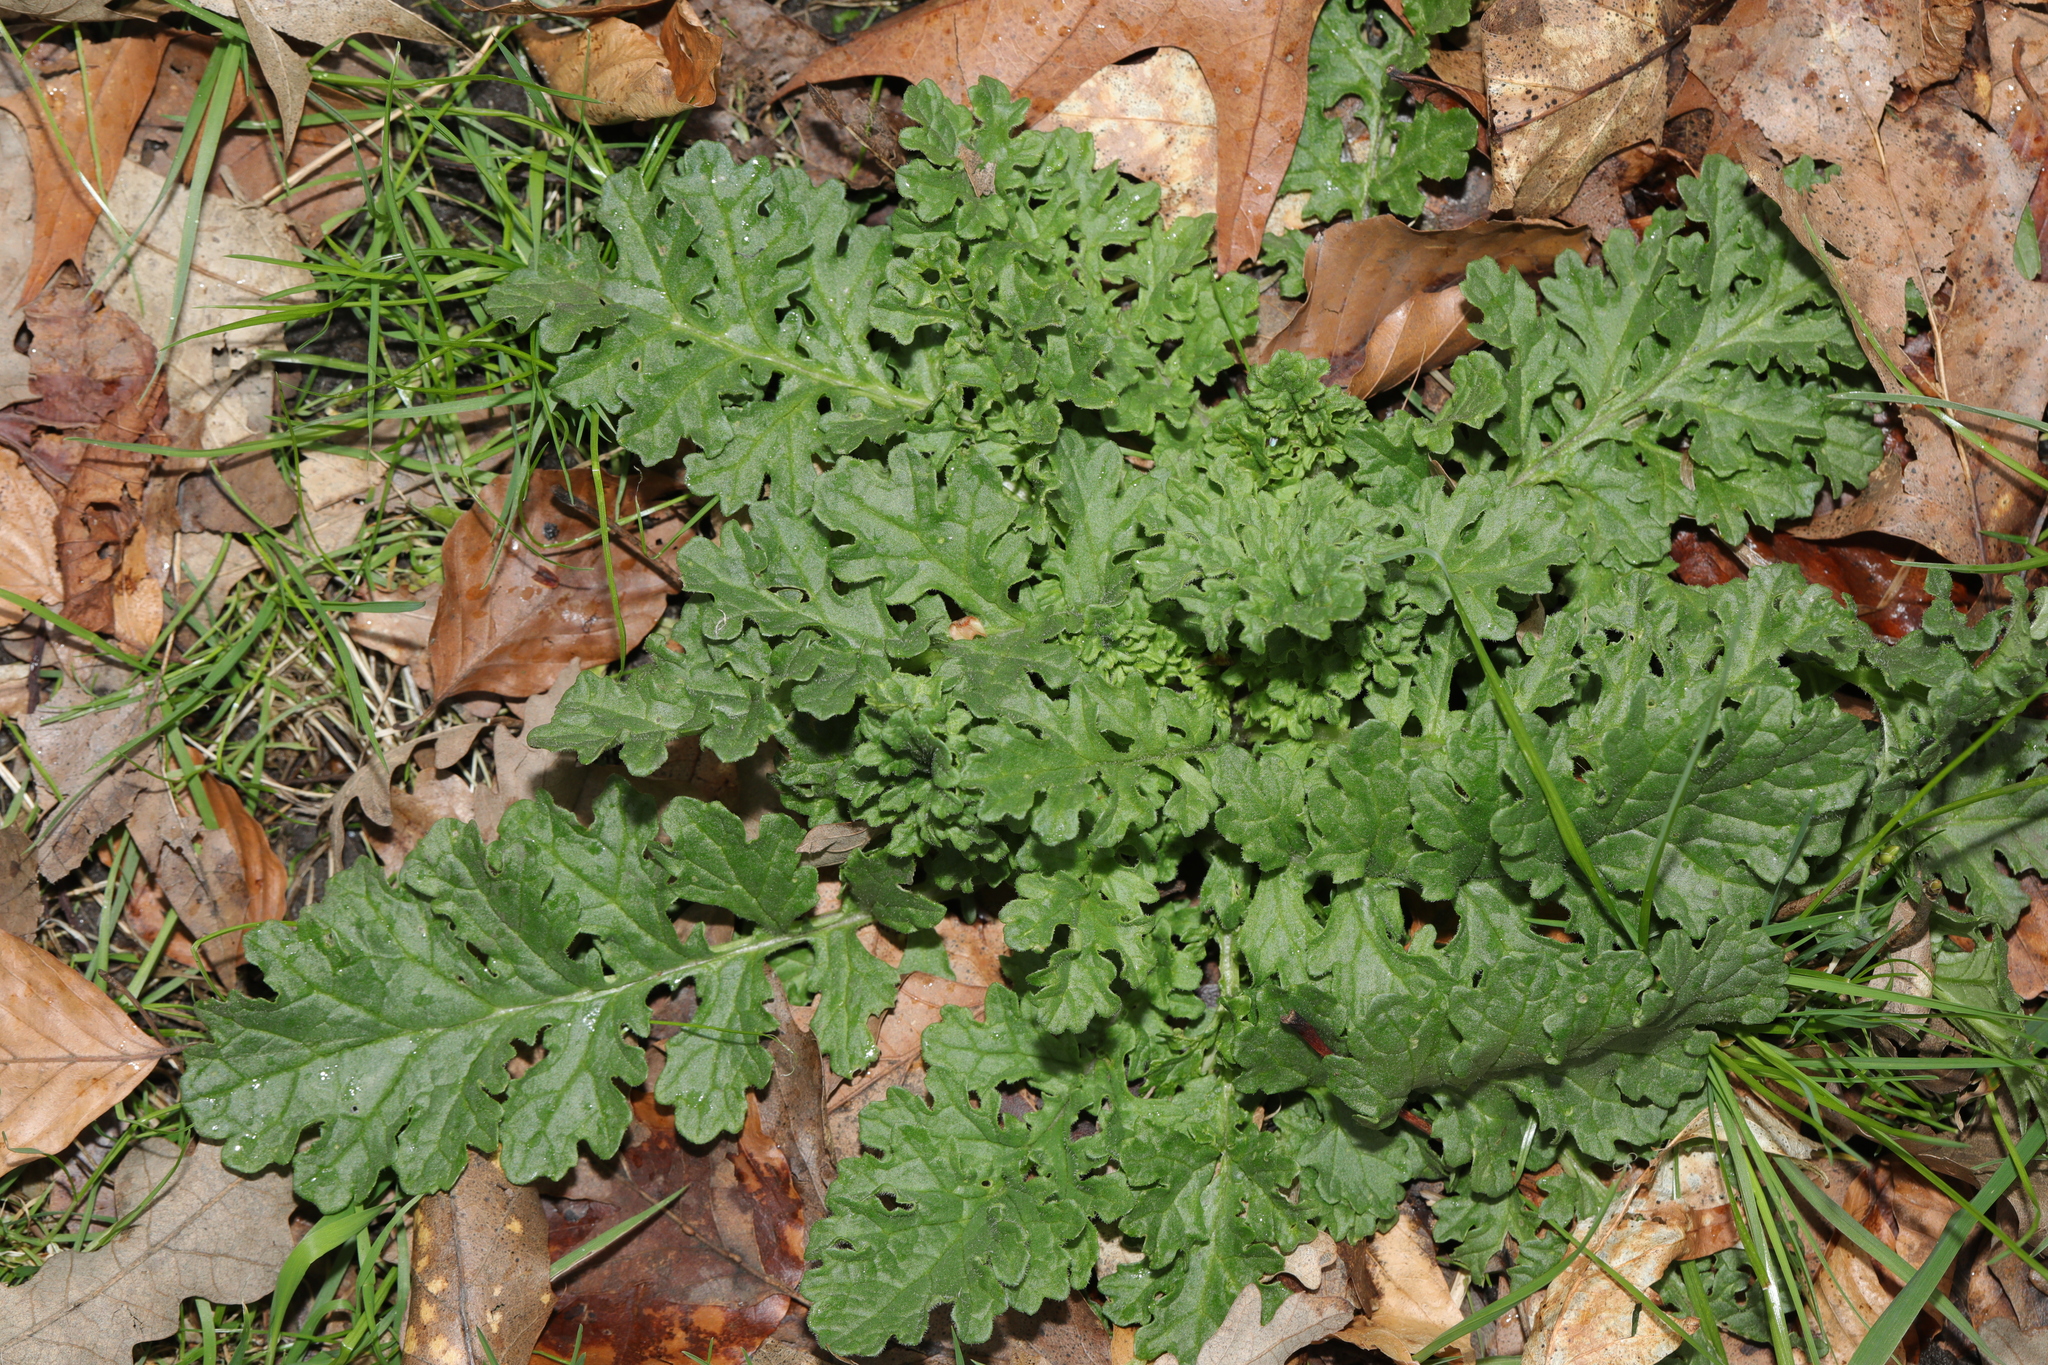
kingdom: Plantae
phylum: Tracheophyta
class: Magnoliopsida
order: Asterales
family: Asteraceae
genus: Jacobaea
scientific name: Jacobaea vulgaris
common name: Stinking willie
